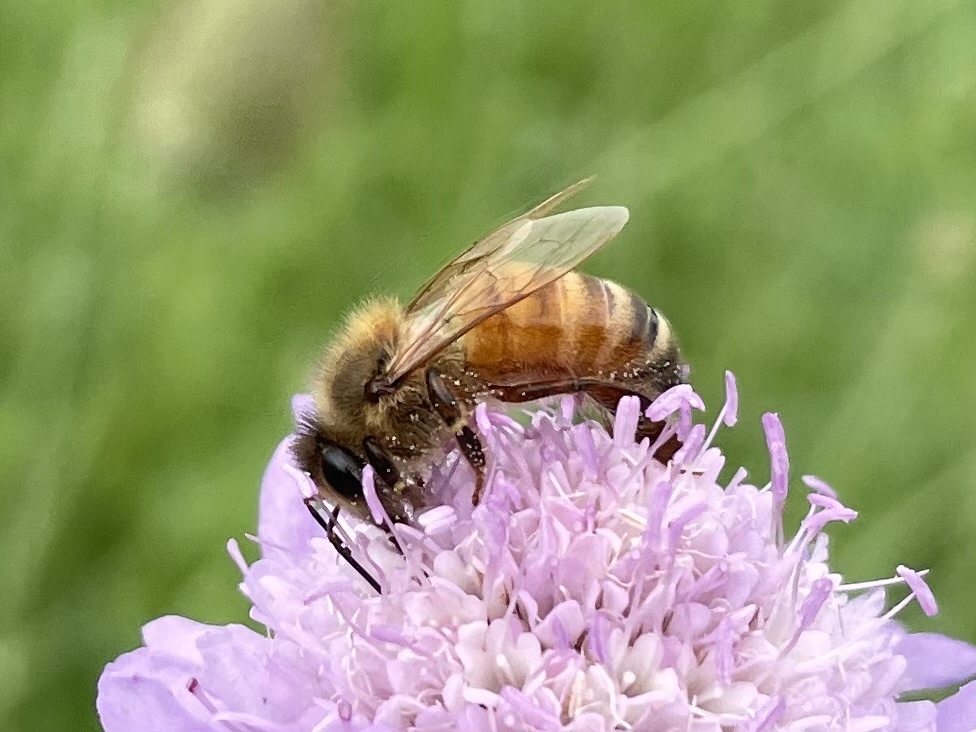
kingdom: Animalia
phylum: Arthropoda
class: Insecta
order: Hymenoptera
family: Apidae
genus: Apis
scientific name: Apis mellifera
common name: Honey bee
